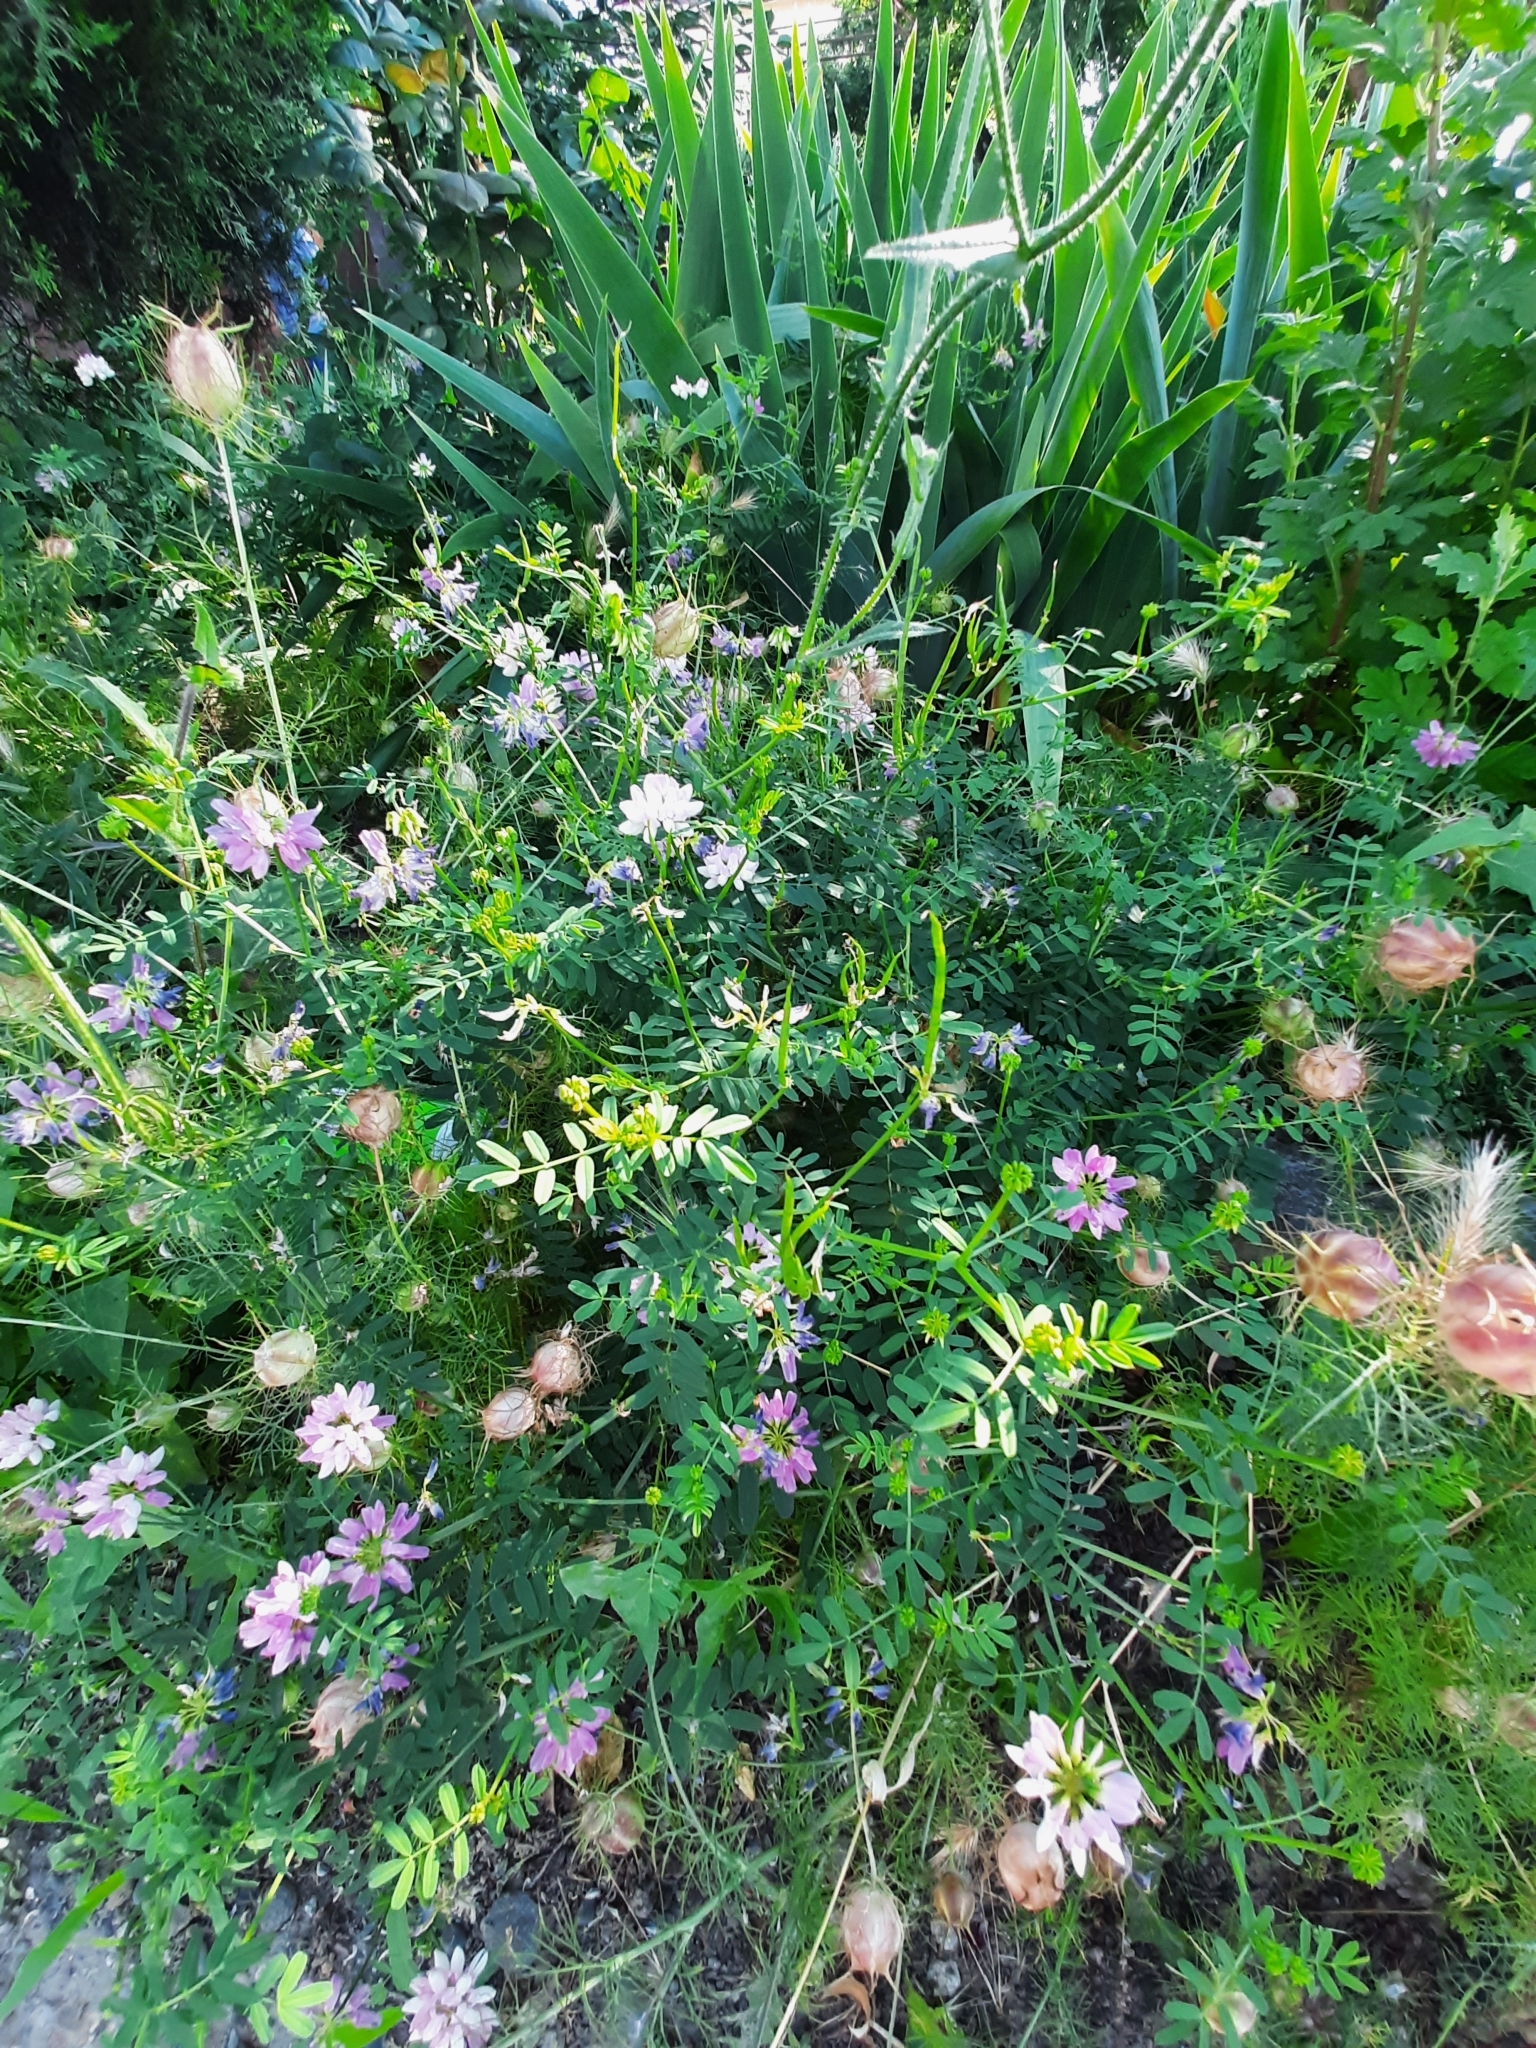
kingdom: Plantae
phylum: Tracheophyta
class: Magnoliopsida
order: Fabales
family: Fabaceae
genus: Coronilla
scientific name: Coronilla varia
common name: Crownvetch
